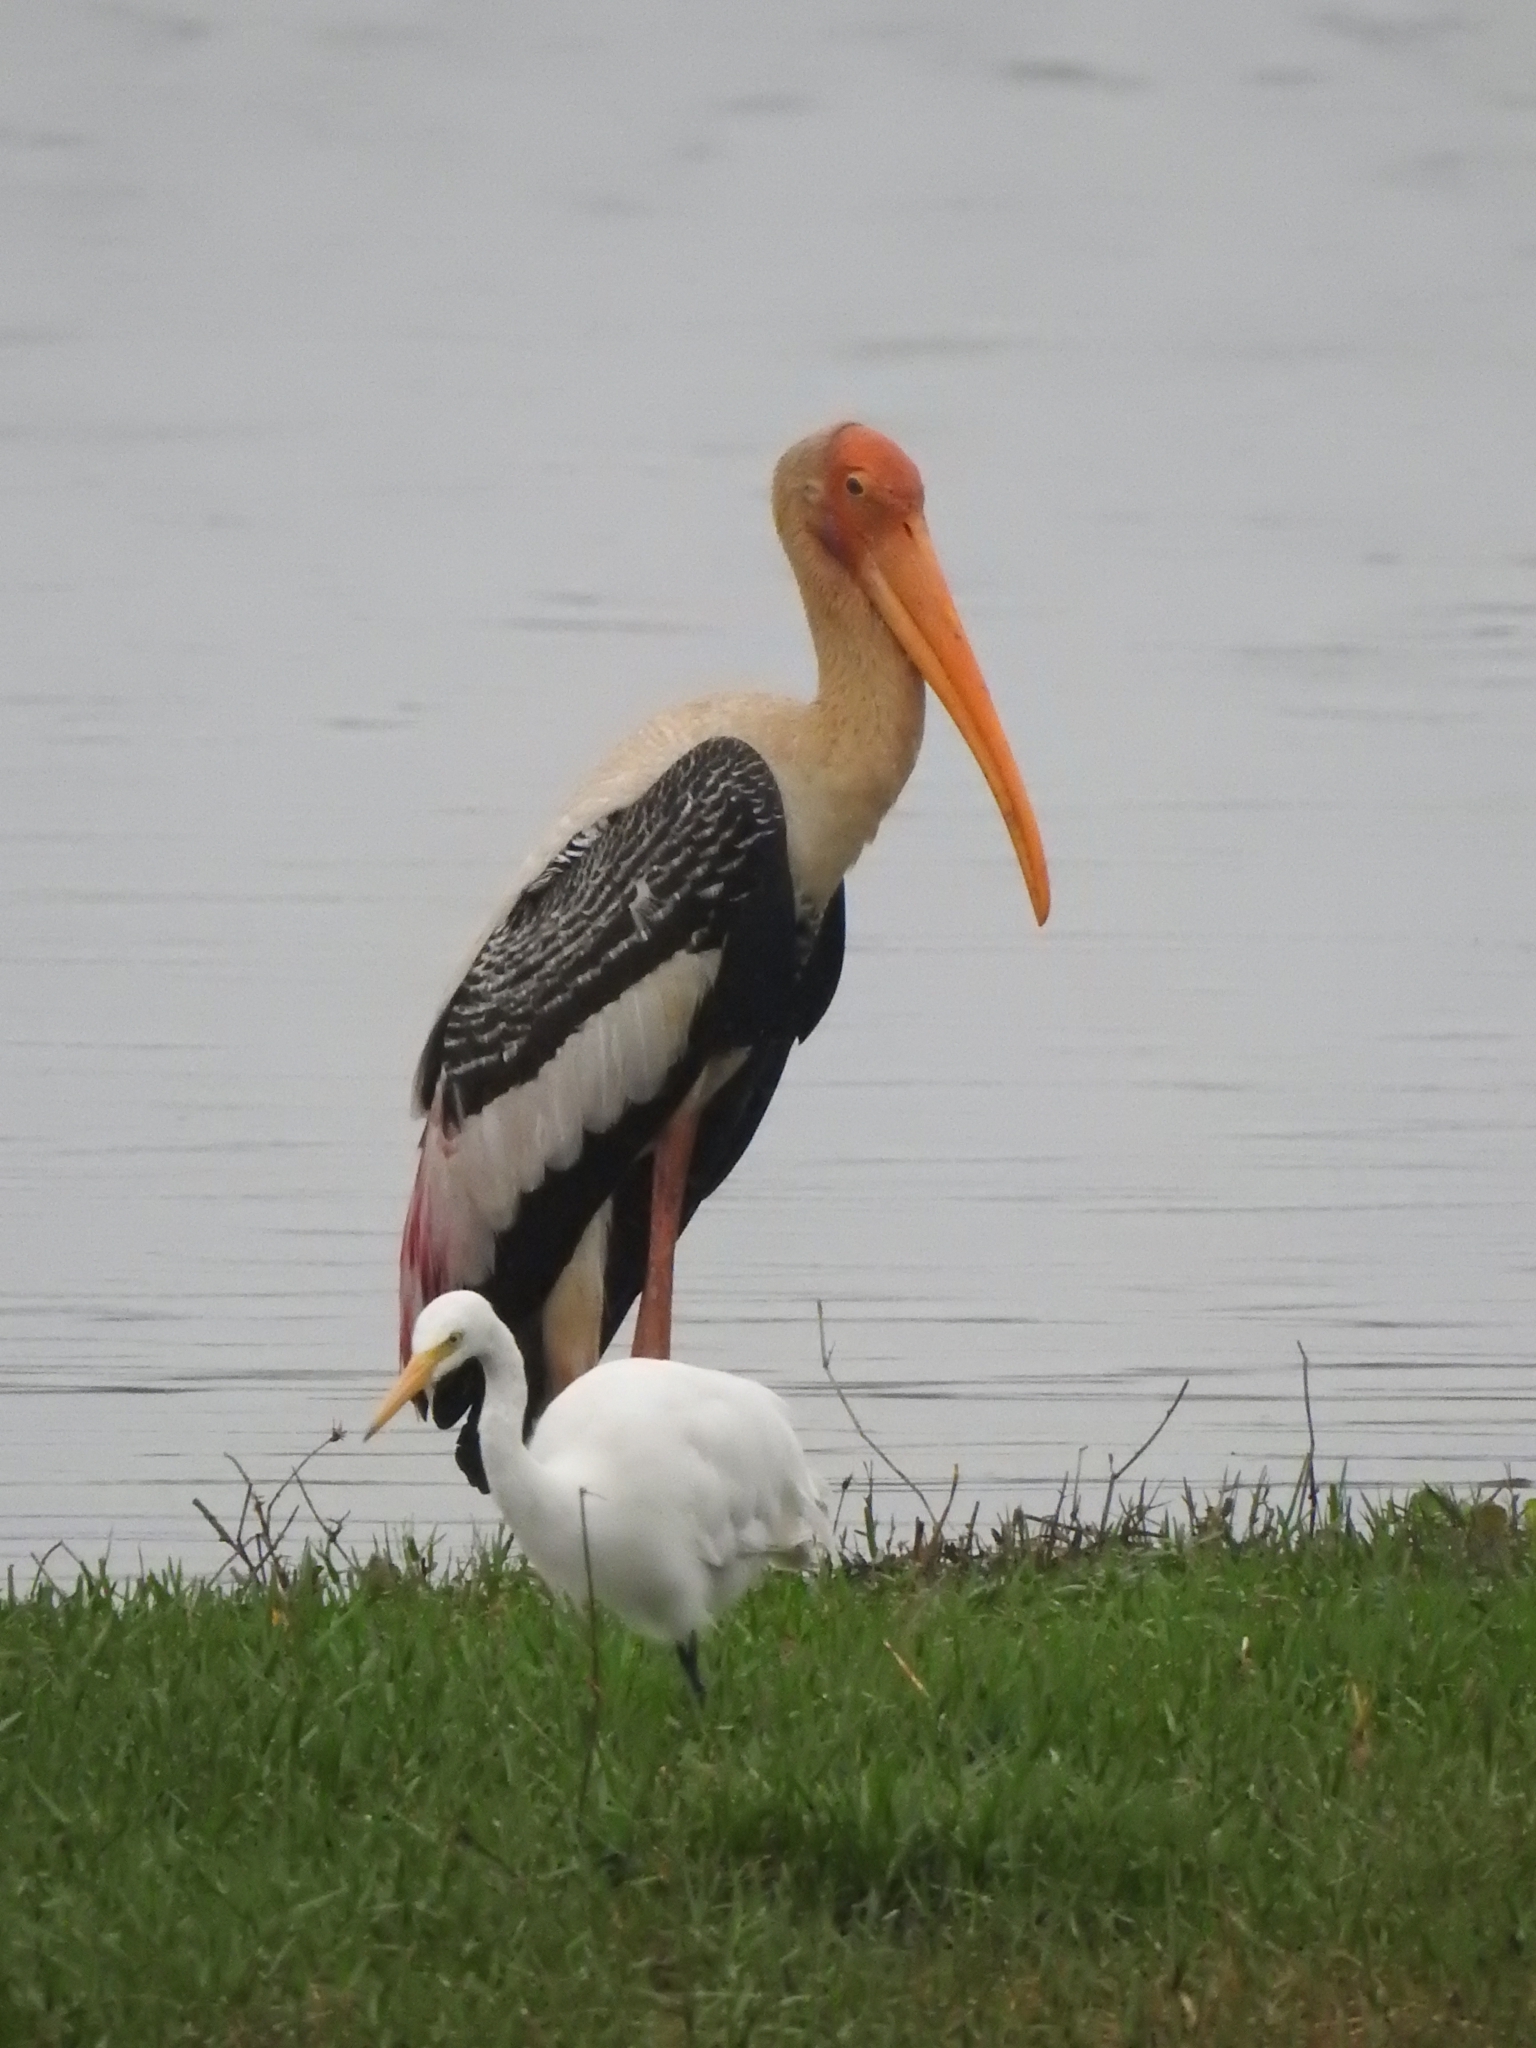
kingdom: Animalia
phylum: Chordata
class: Aves
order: Ciconiiformes
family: Ciconiidae
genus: Mycteria
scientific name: Mycteria leucocephala
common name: Painted stork
